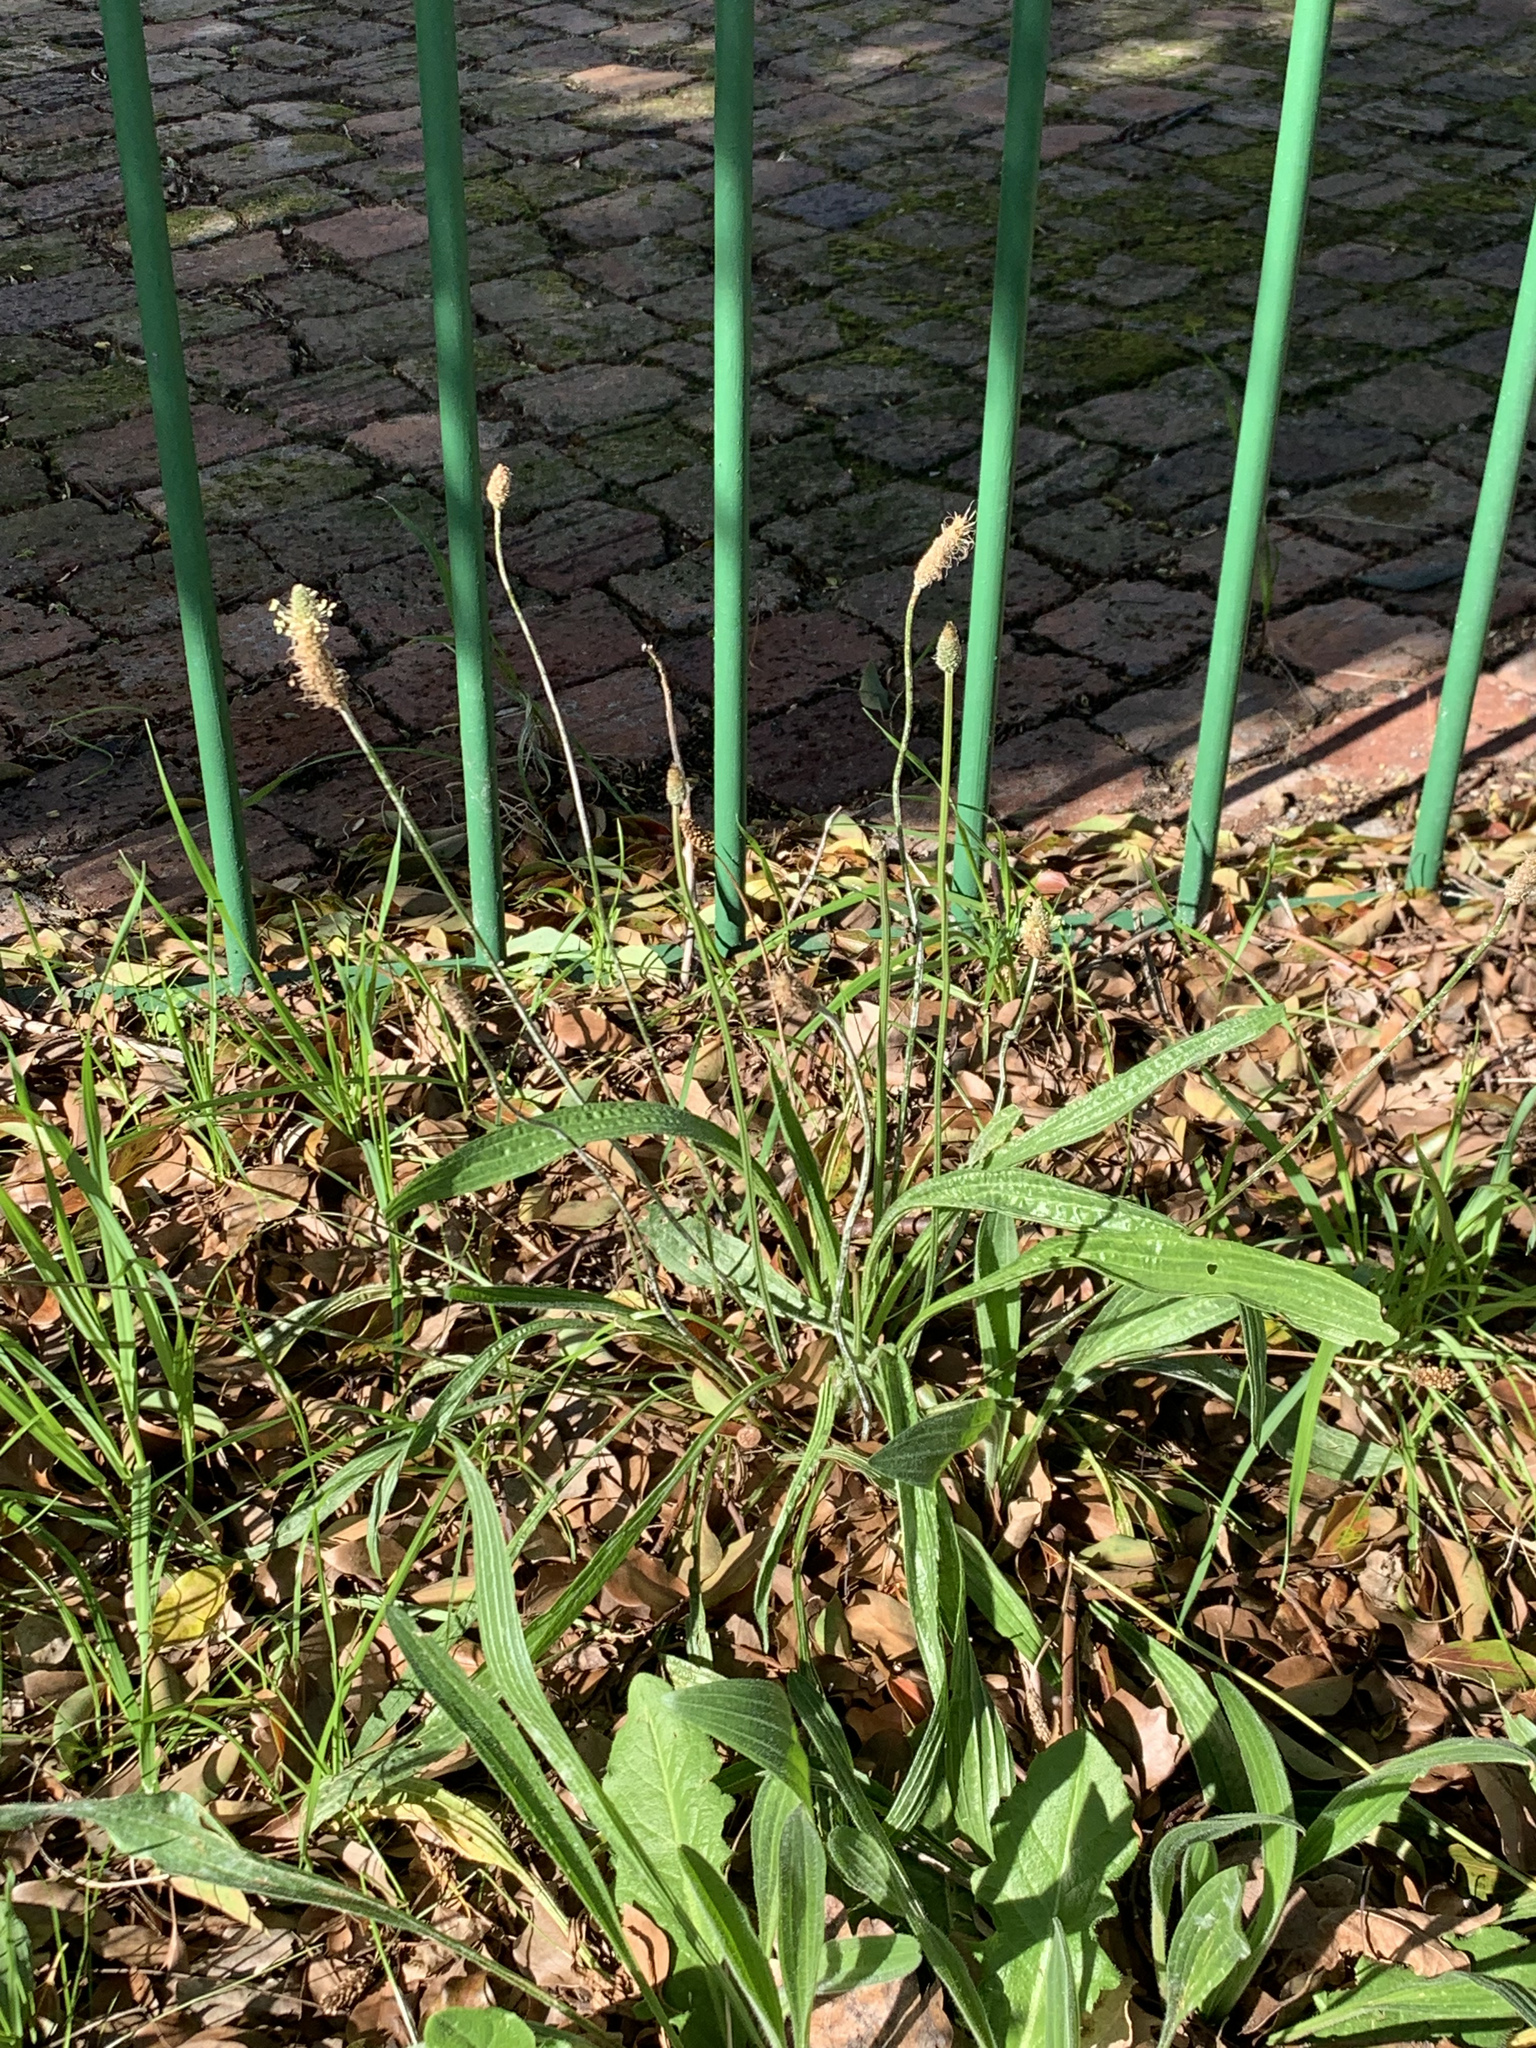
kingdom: Plantae
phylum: Tracheophyta
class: Magnoliopsida
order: Lamiales
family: Plantaginaceae
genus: Plantago
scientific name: Plantago lanceolata
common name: Ribwort plantain
